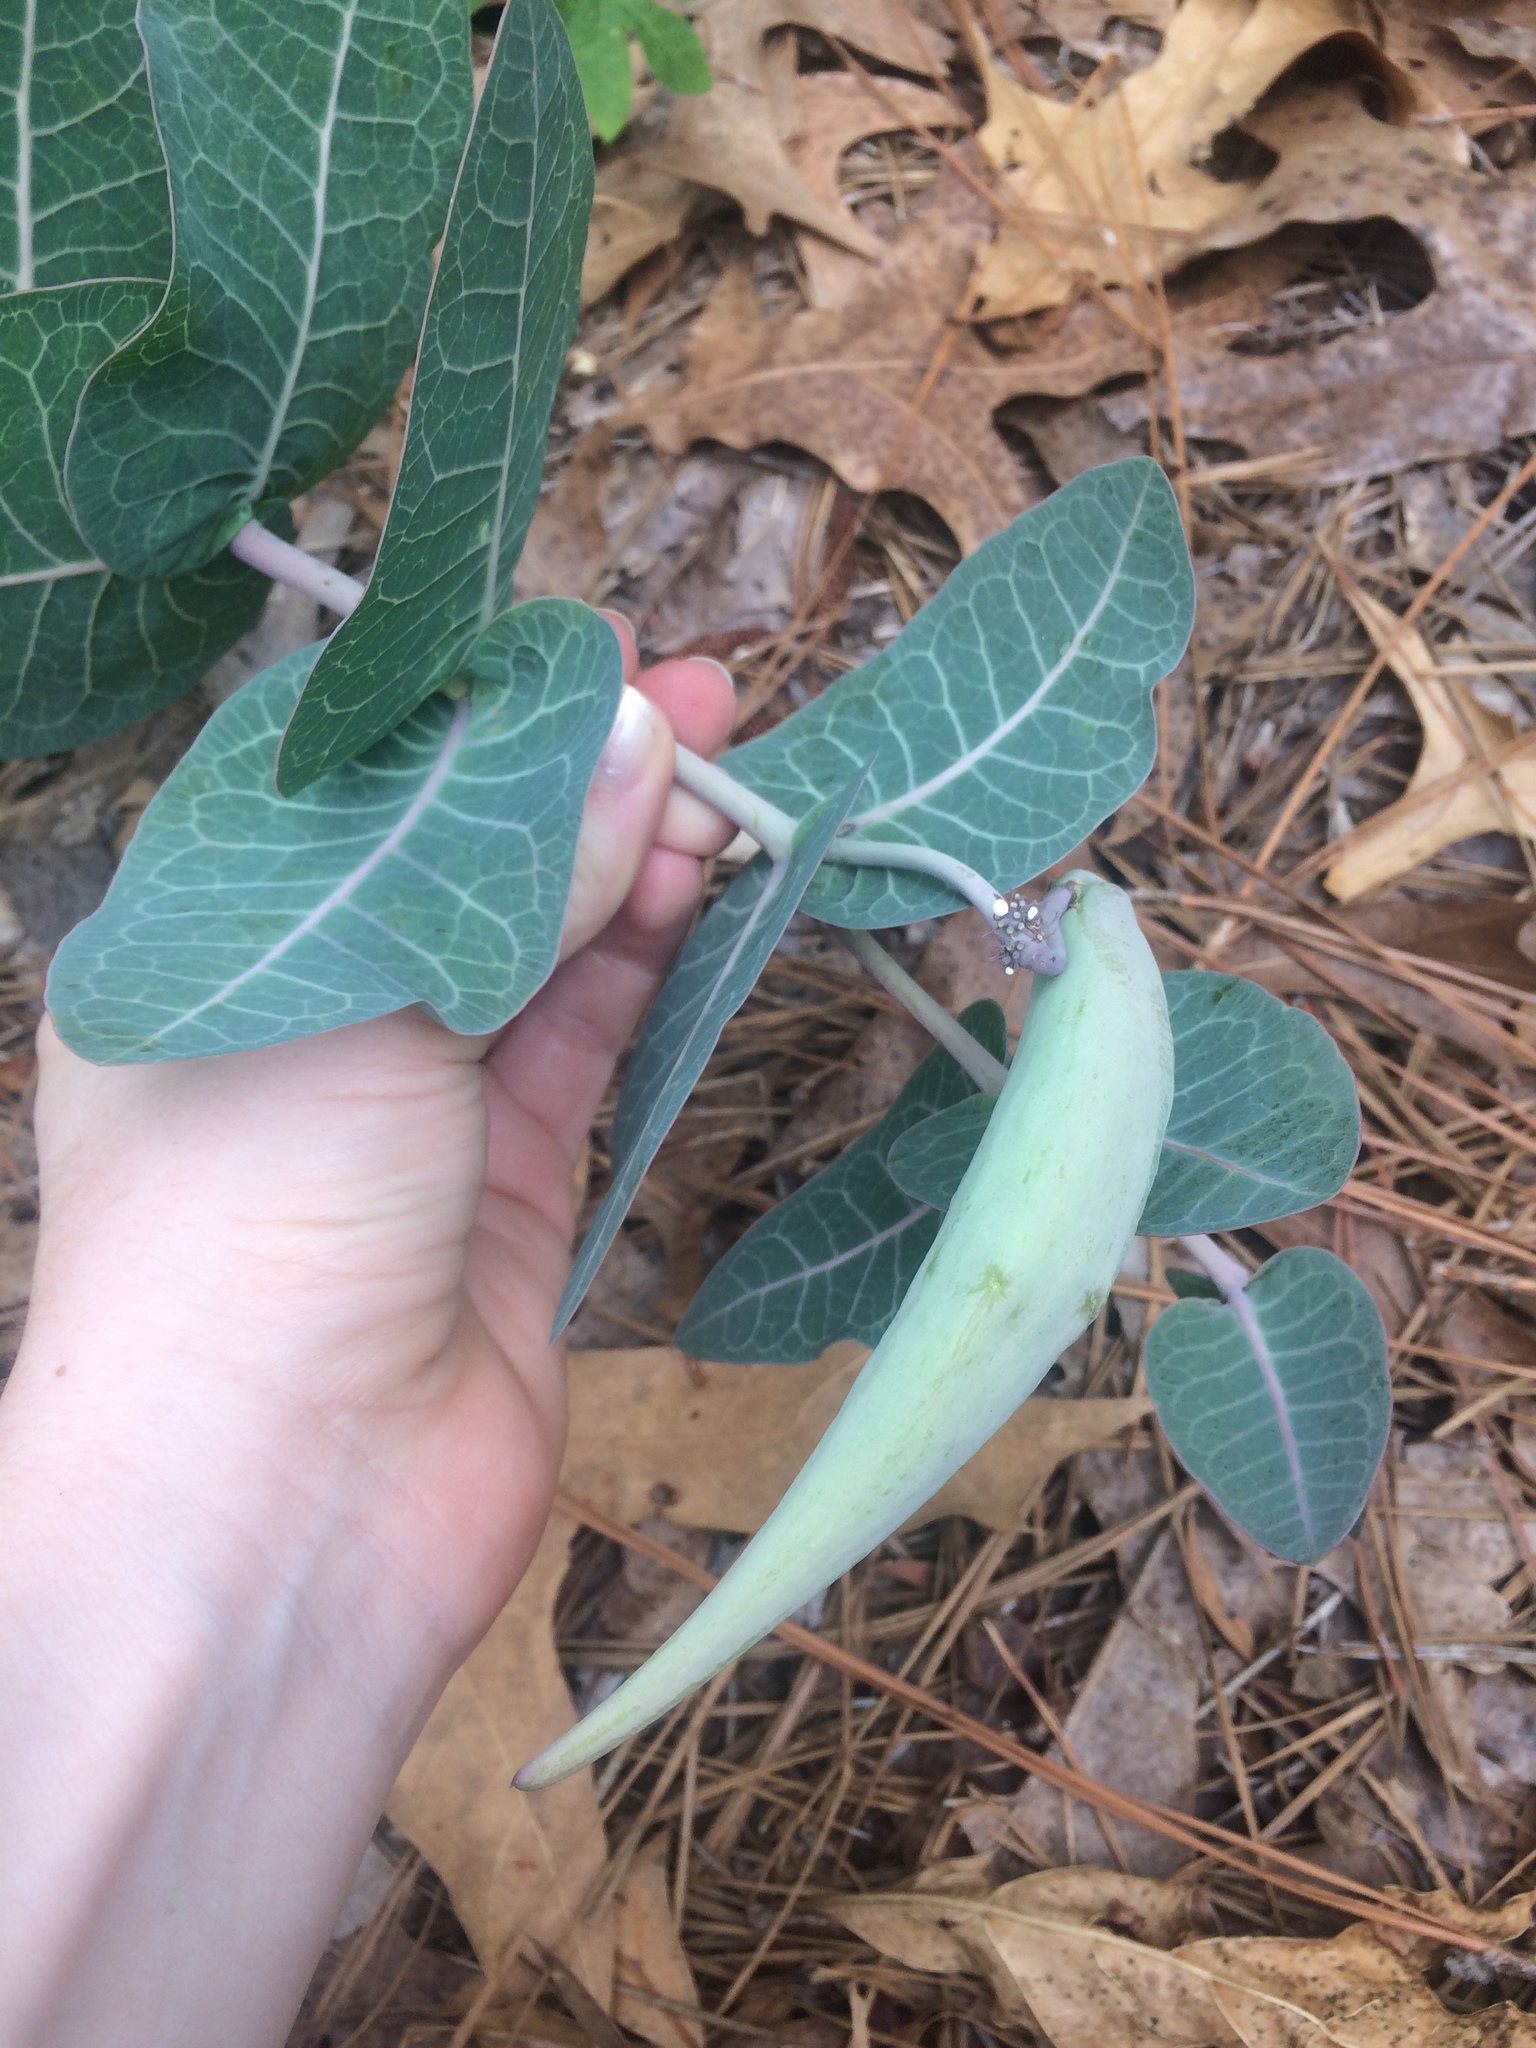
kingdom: Plantae
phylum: Tracheophyta
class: Magnoliopsida
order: Gentianales
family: Apocynaceae
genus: Asclepias
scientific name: Asclepias humistrata
